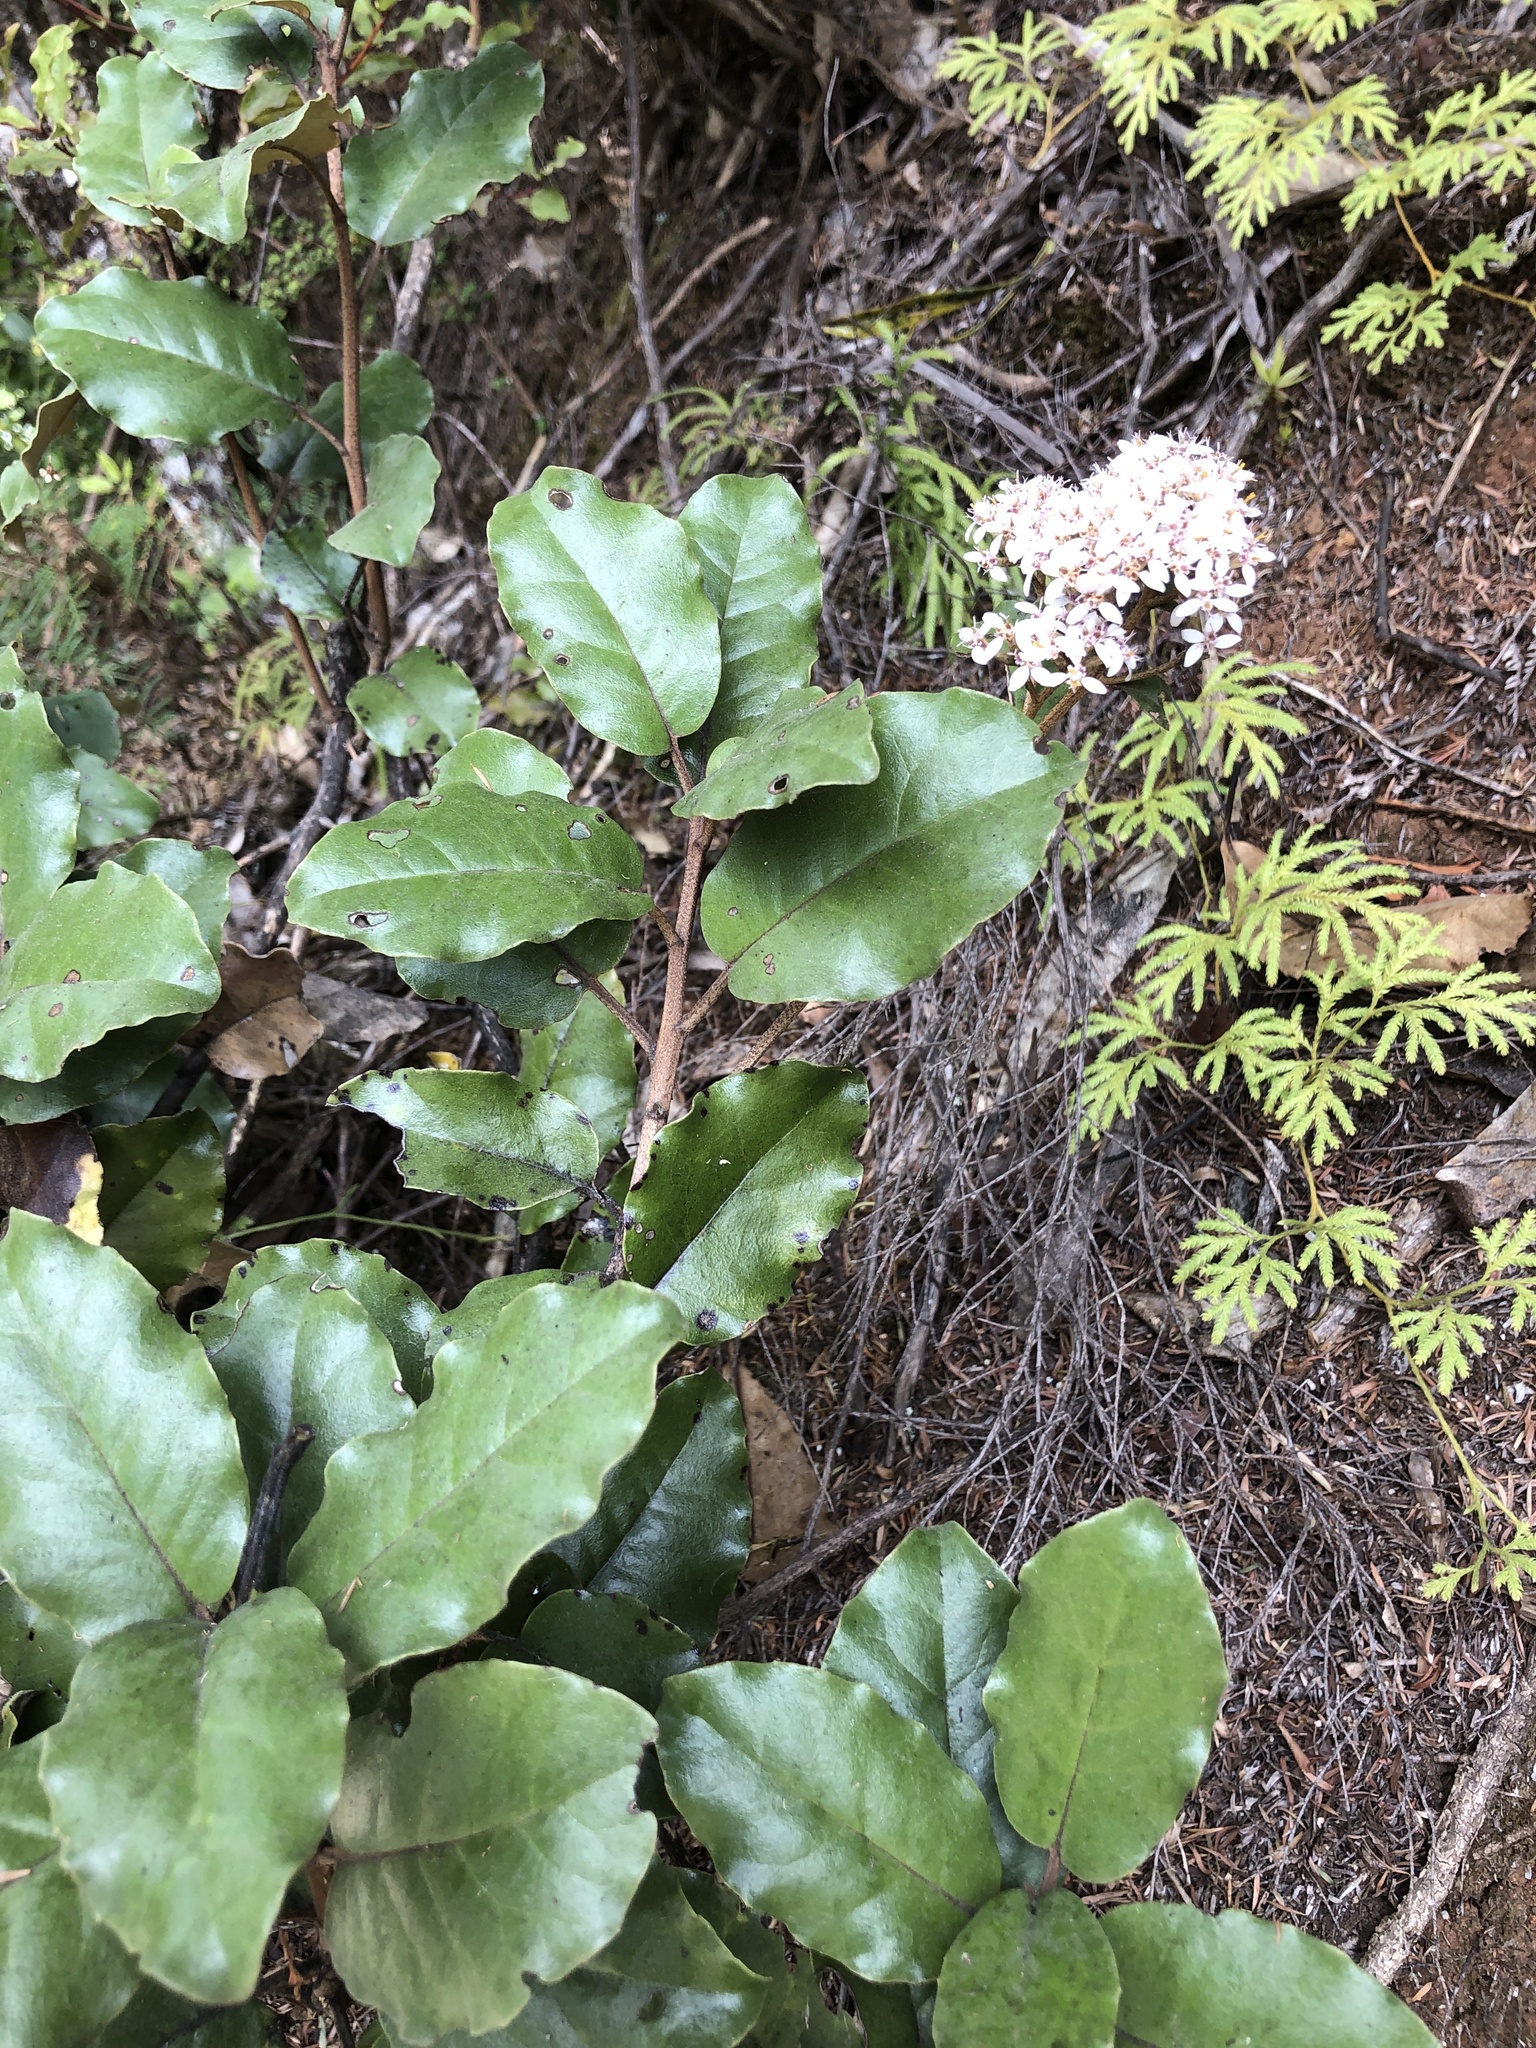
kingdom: Plantae
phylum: Tracheophyta
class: Magnoliopsida
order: Asterales
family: Asteraceae
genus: Olearia
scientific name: Olearia furfuracea
